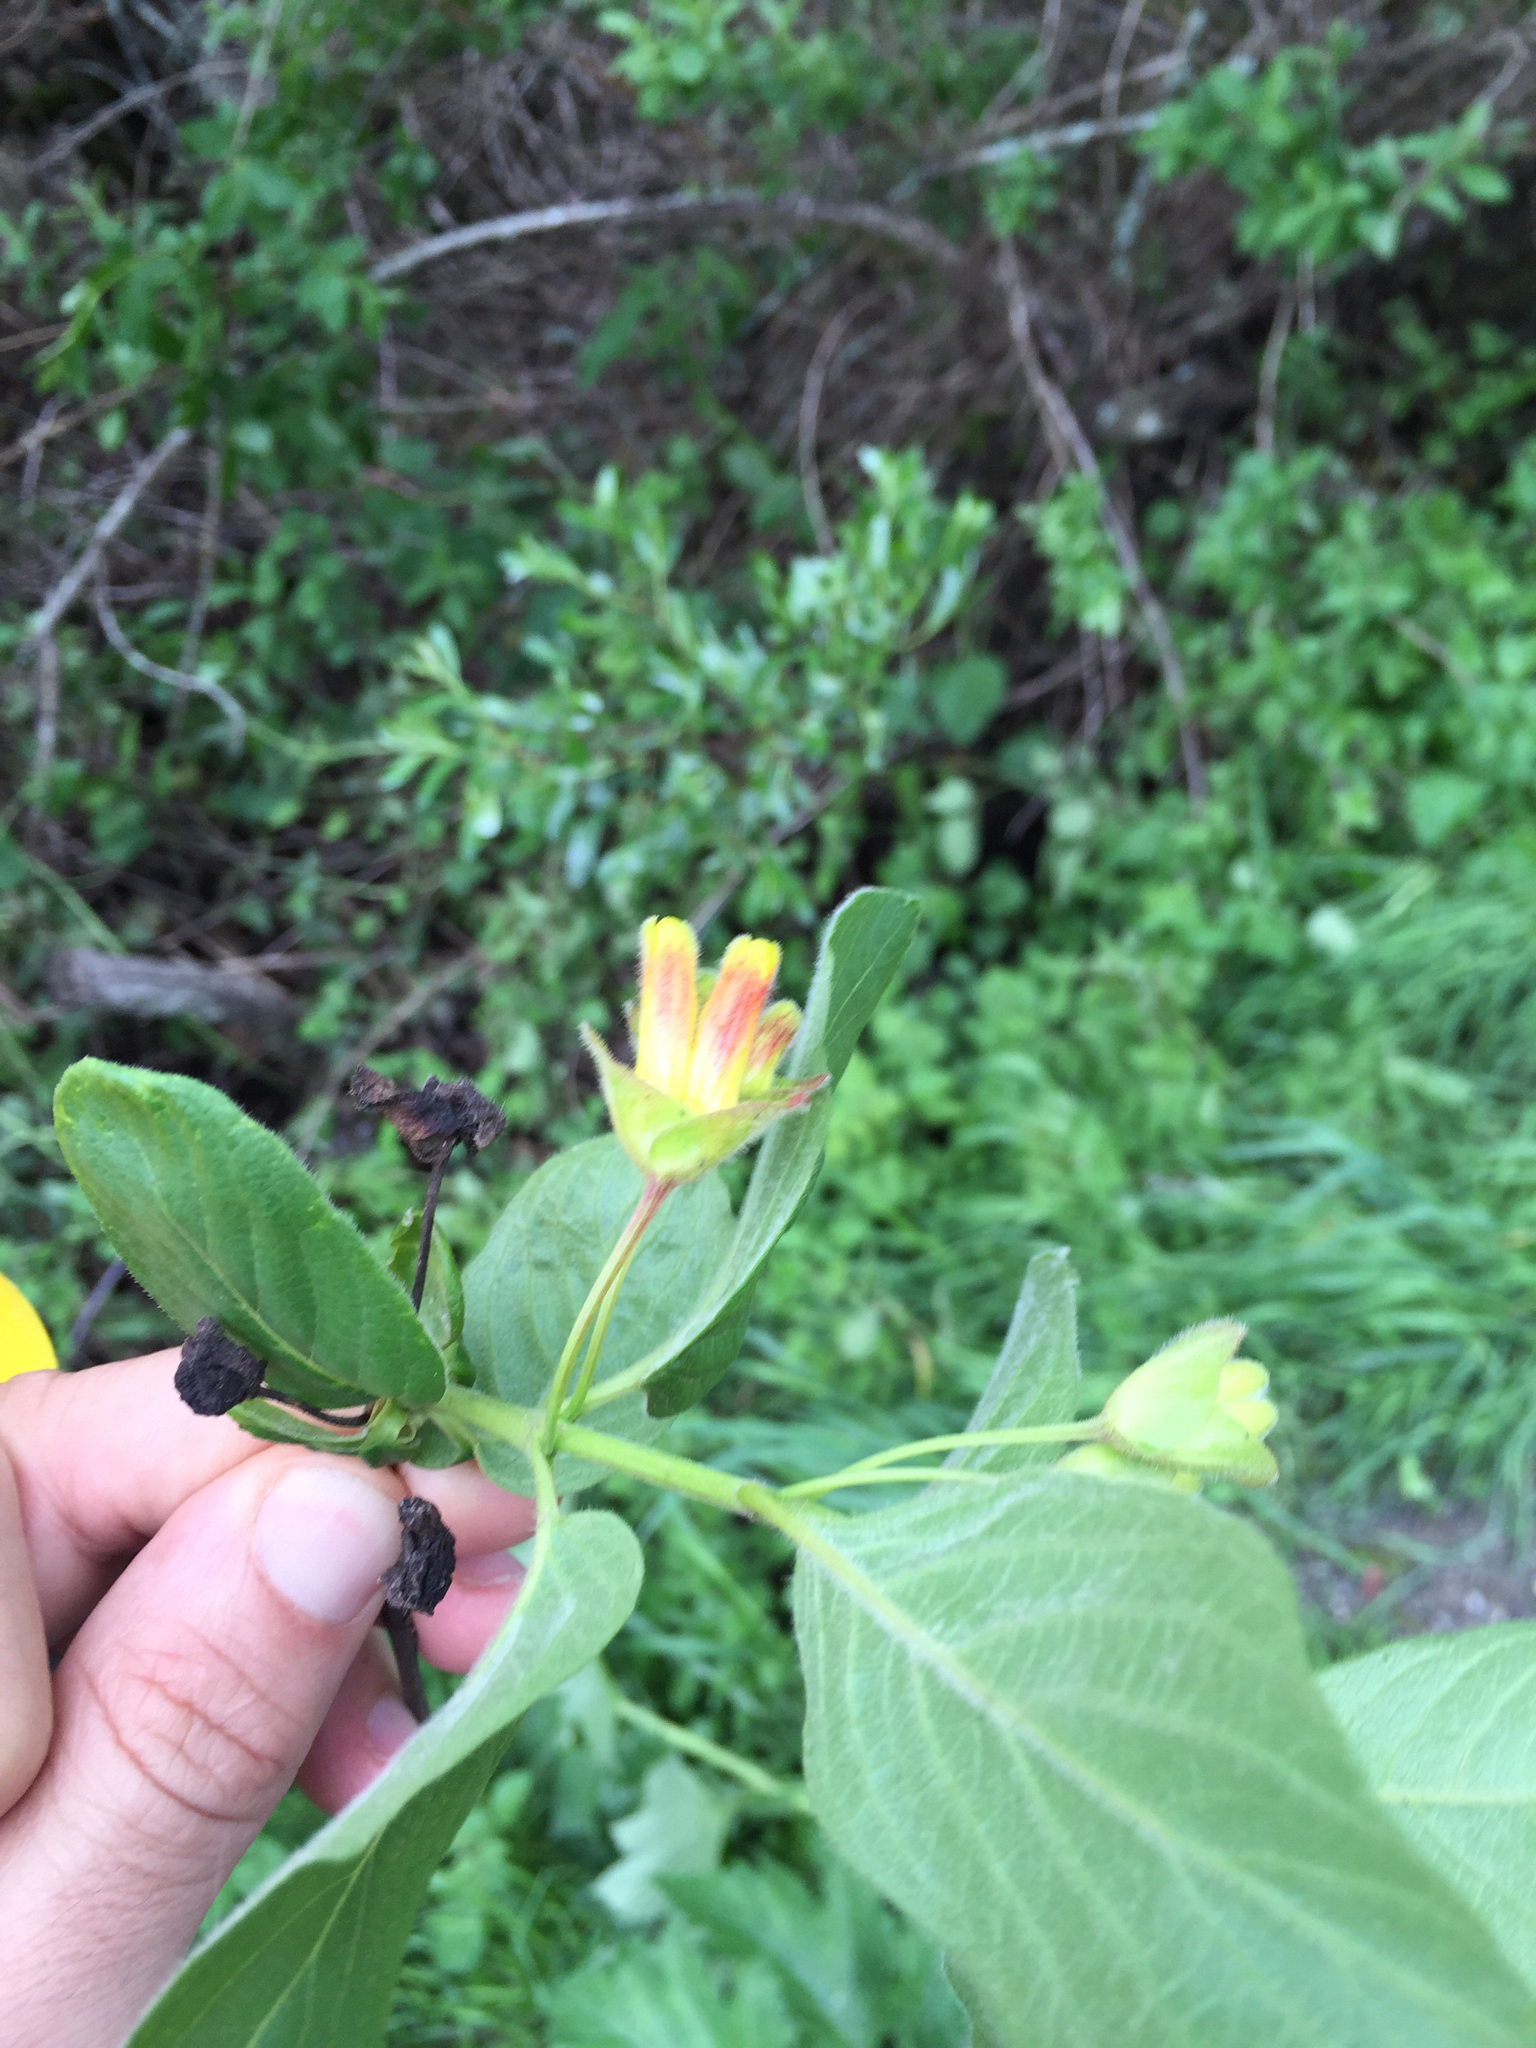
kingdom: Plantae
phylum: Tracheophyta
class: Magnoliopsida
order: Dipsacales
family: Caprifoliaceae
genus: Lonicera
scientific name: Lonicera involucrata
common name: Californian honeysuckle
